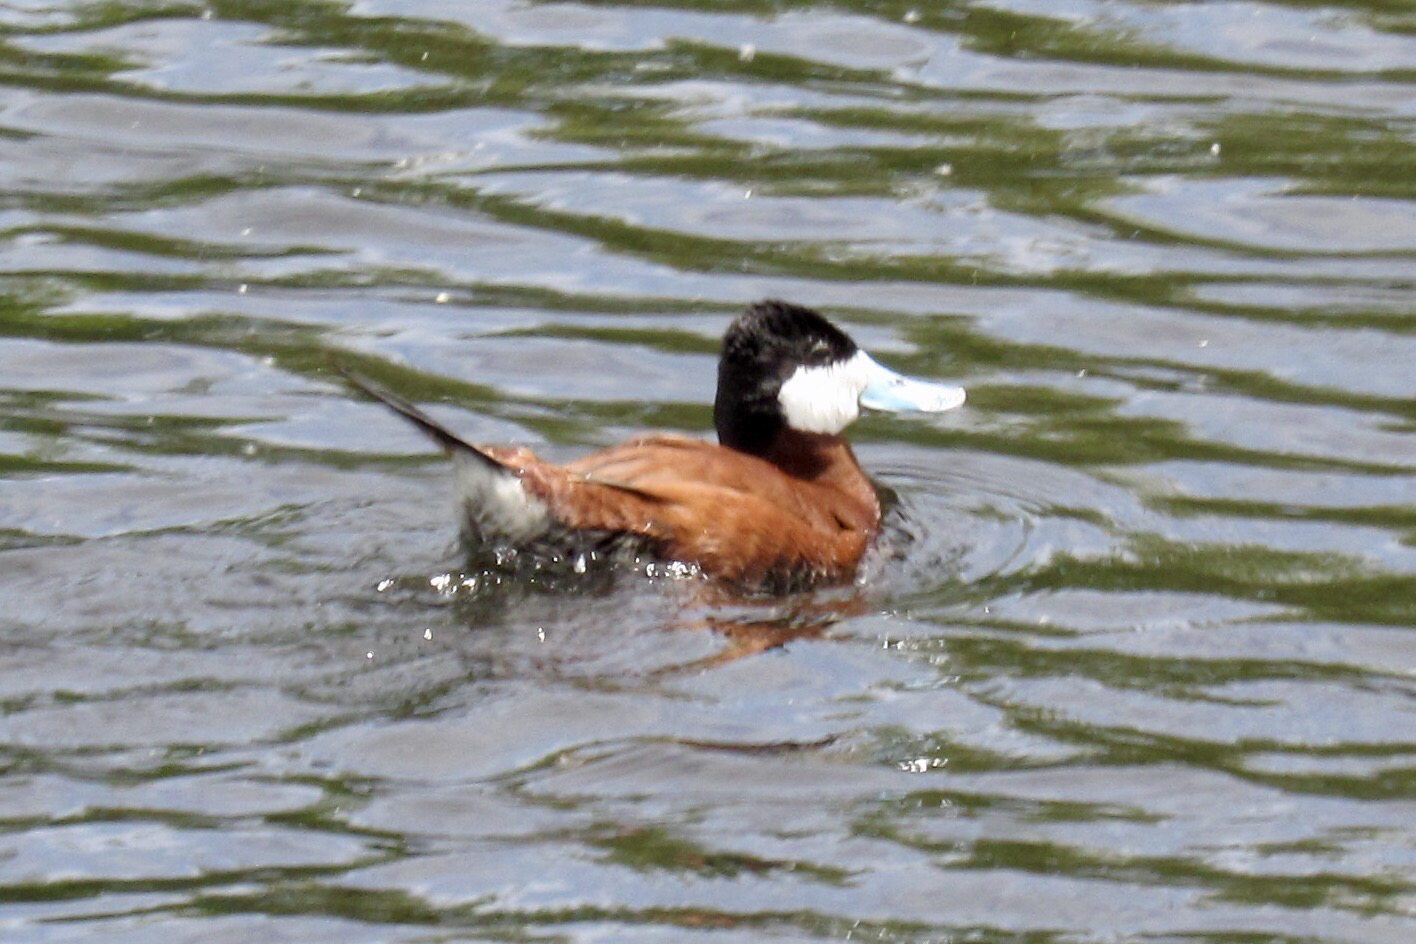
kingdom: Animalia
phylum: Chordata
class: Aves
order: Anseriformes
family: Anatidae
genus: Oxyura
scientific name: Oxyura jamaicensis
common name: Ruddy duck
